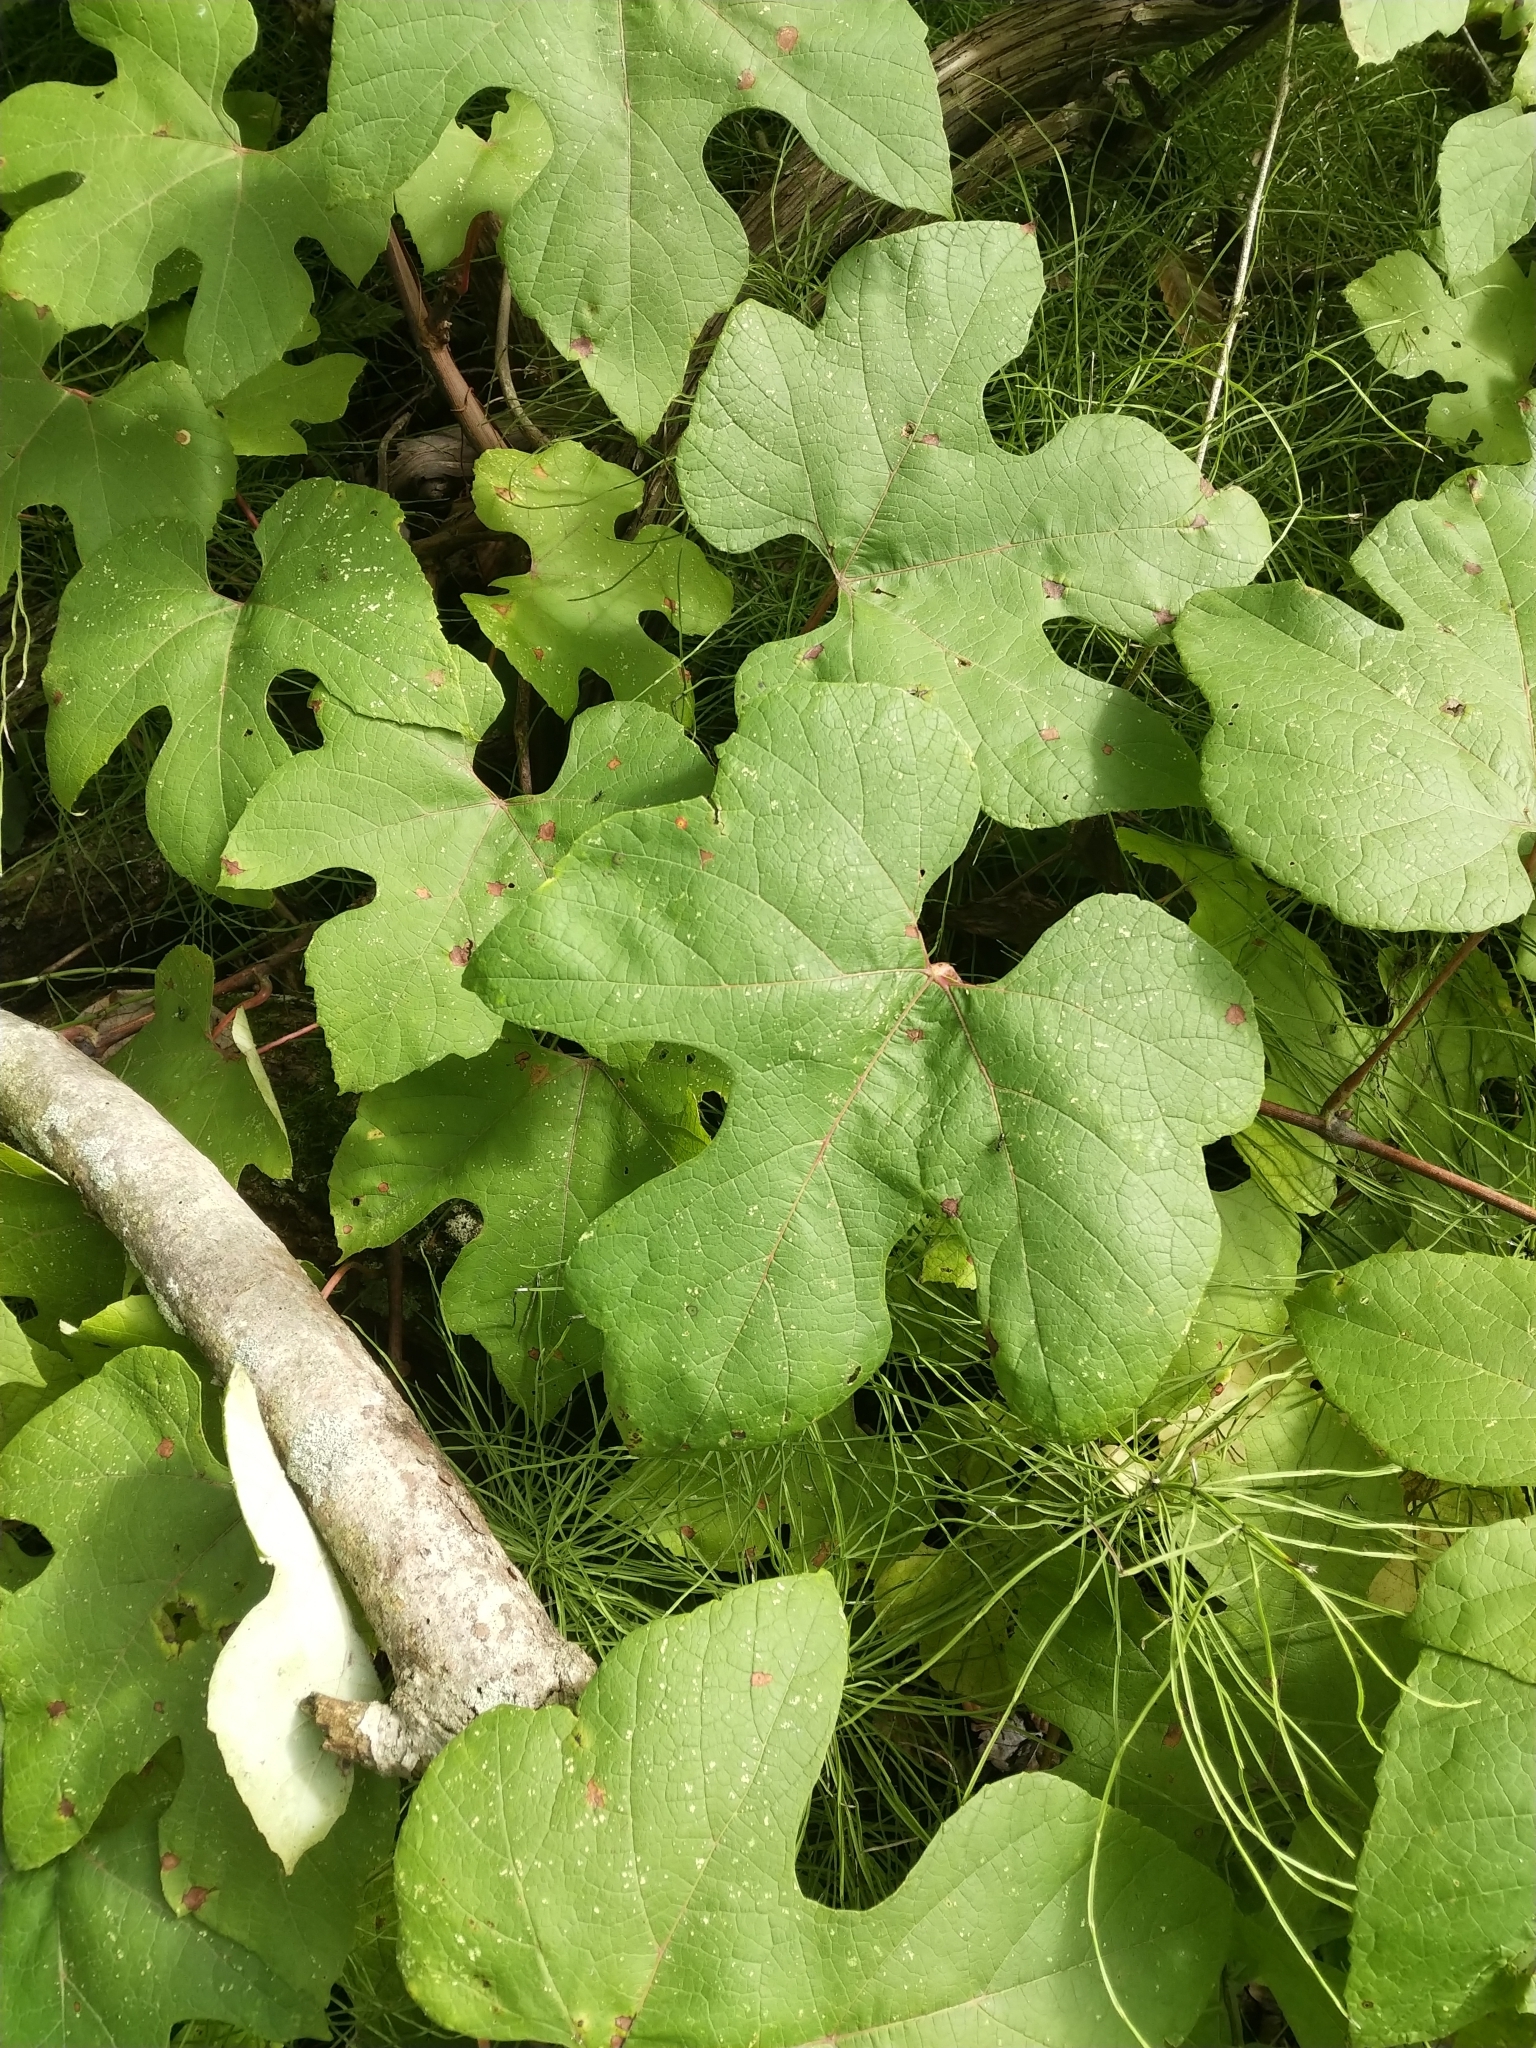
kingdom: Plantae
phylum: Tracheophyta
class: Magnoliopsida
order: Vitales
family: Vitaceae
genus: Vitis
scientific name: Vitis aestivalis
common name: Pigeon grape
